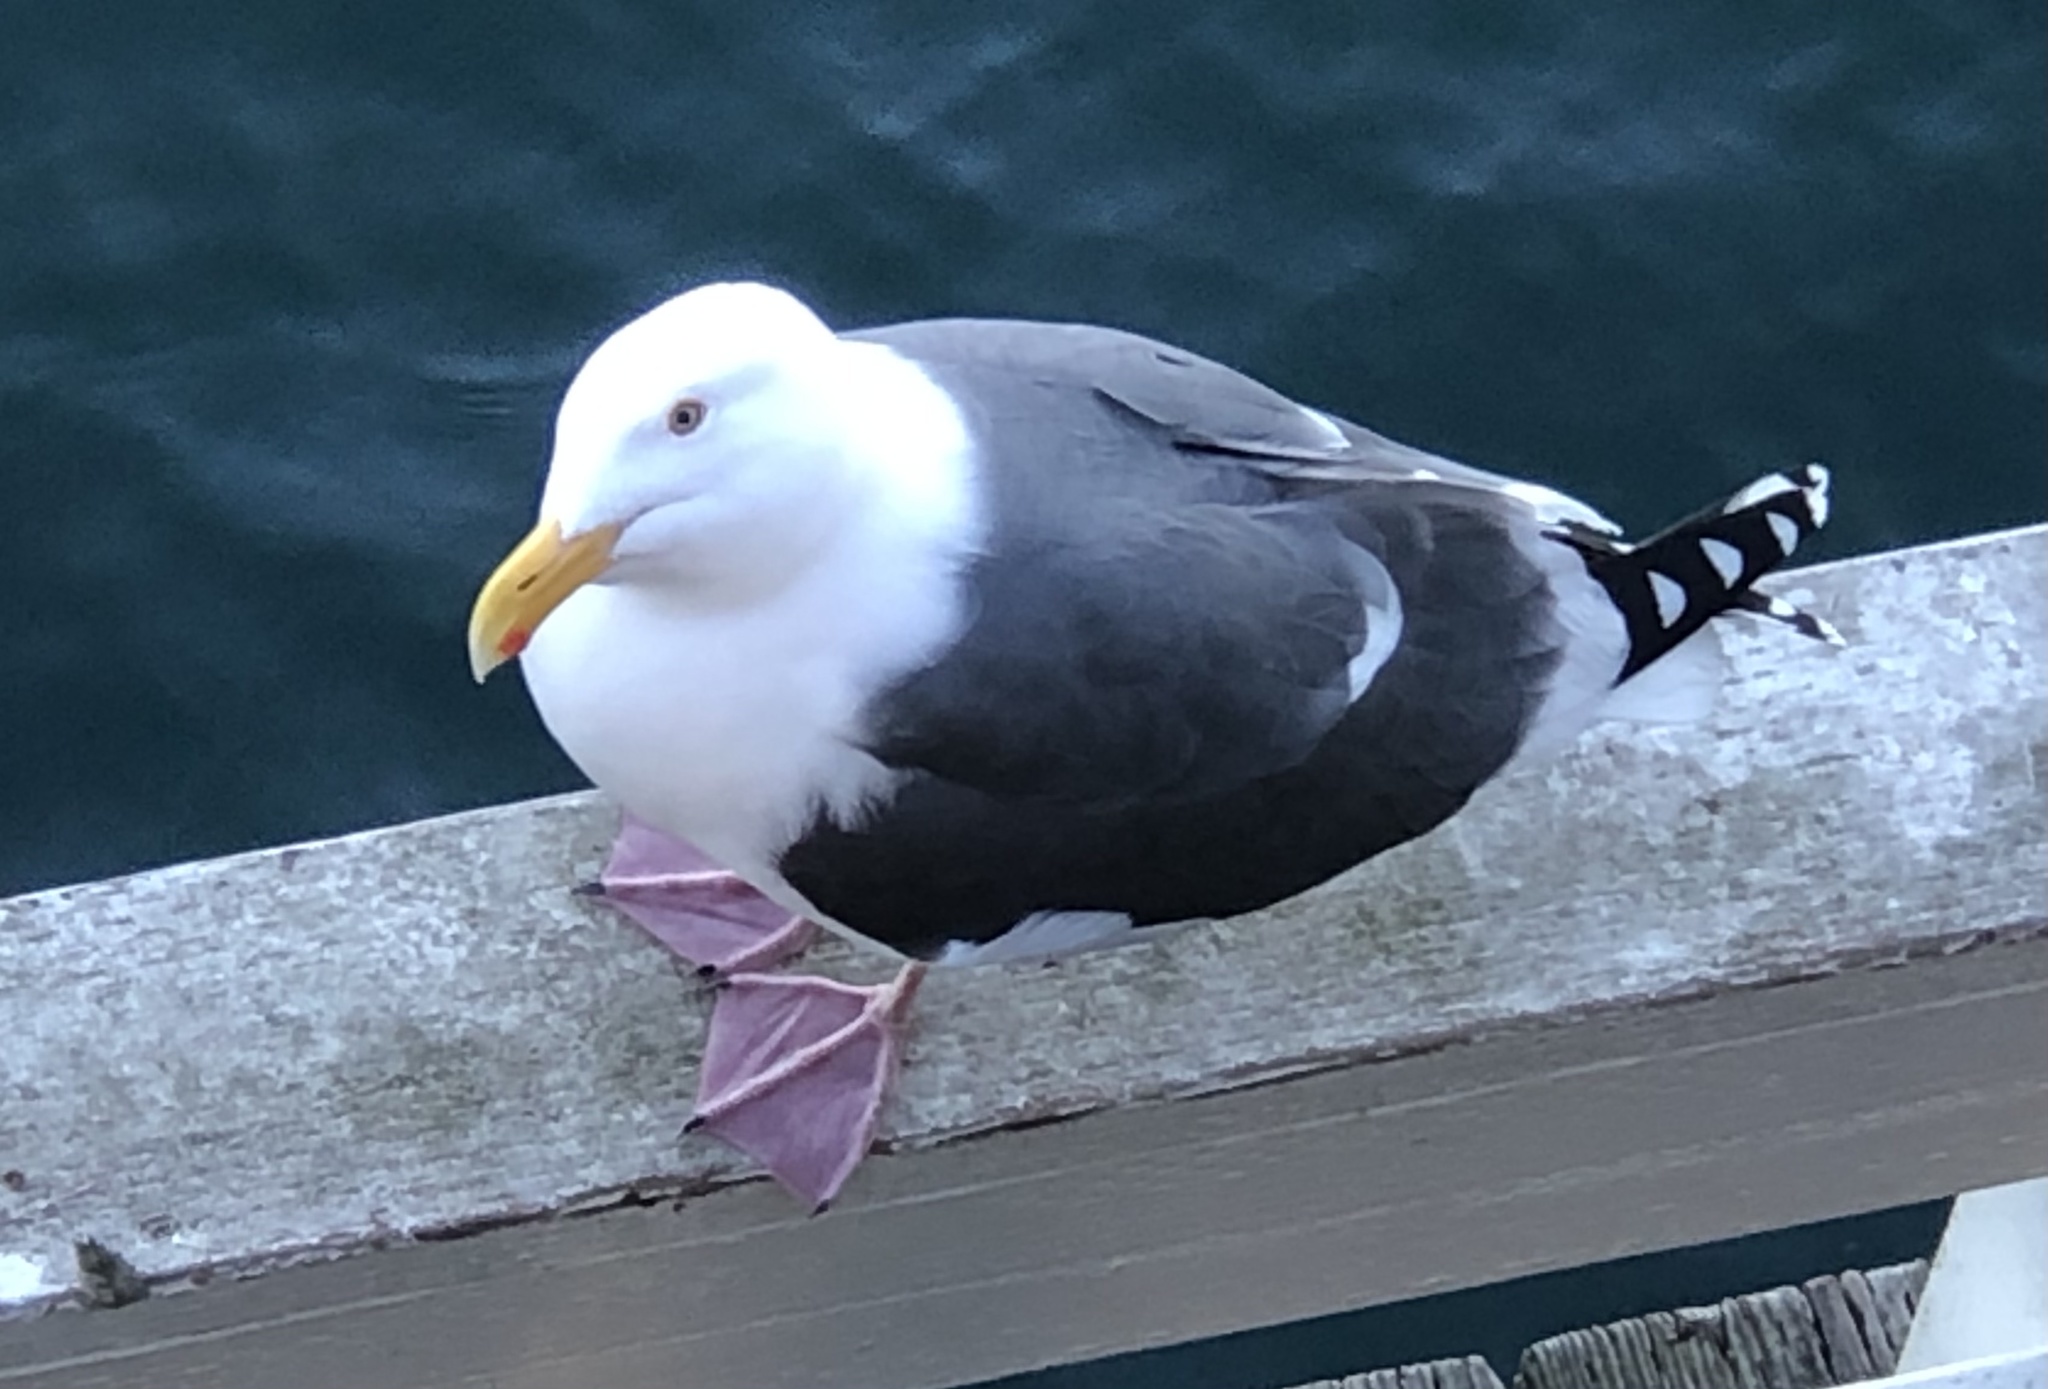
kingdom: Animalia
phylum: Chordata
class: Aves
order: Charadriiformes
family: Laridae
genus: Larus
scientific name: Larus occidentalis
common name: Western gull
